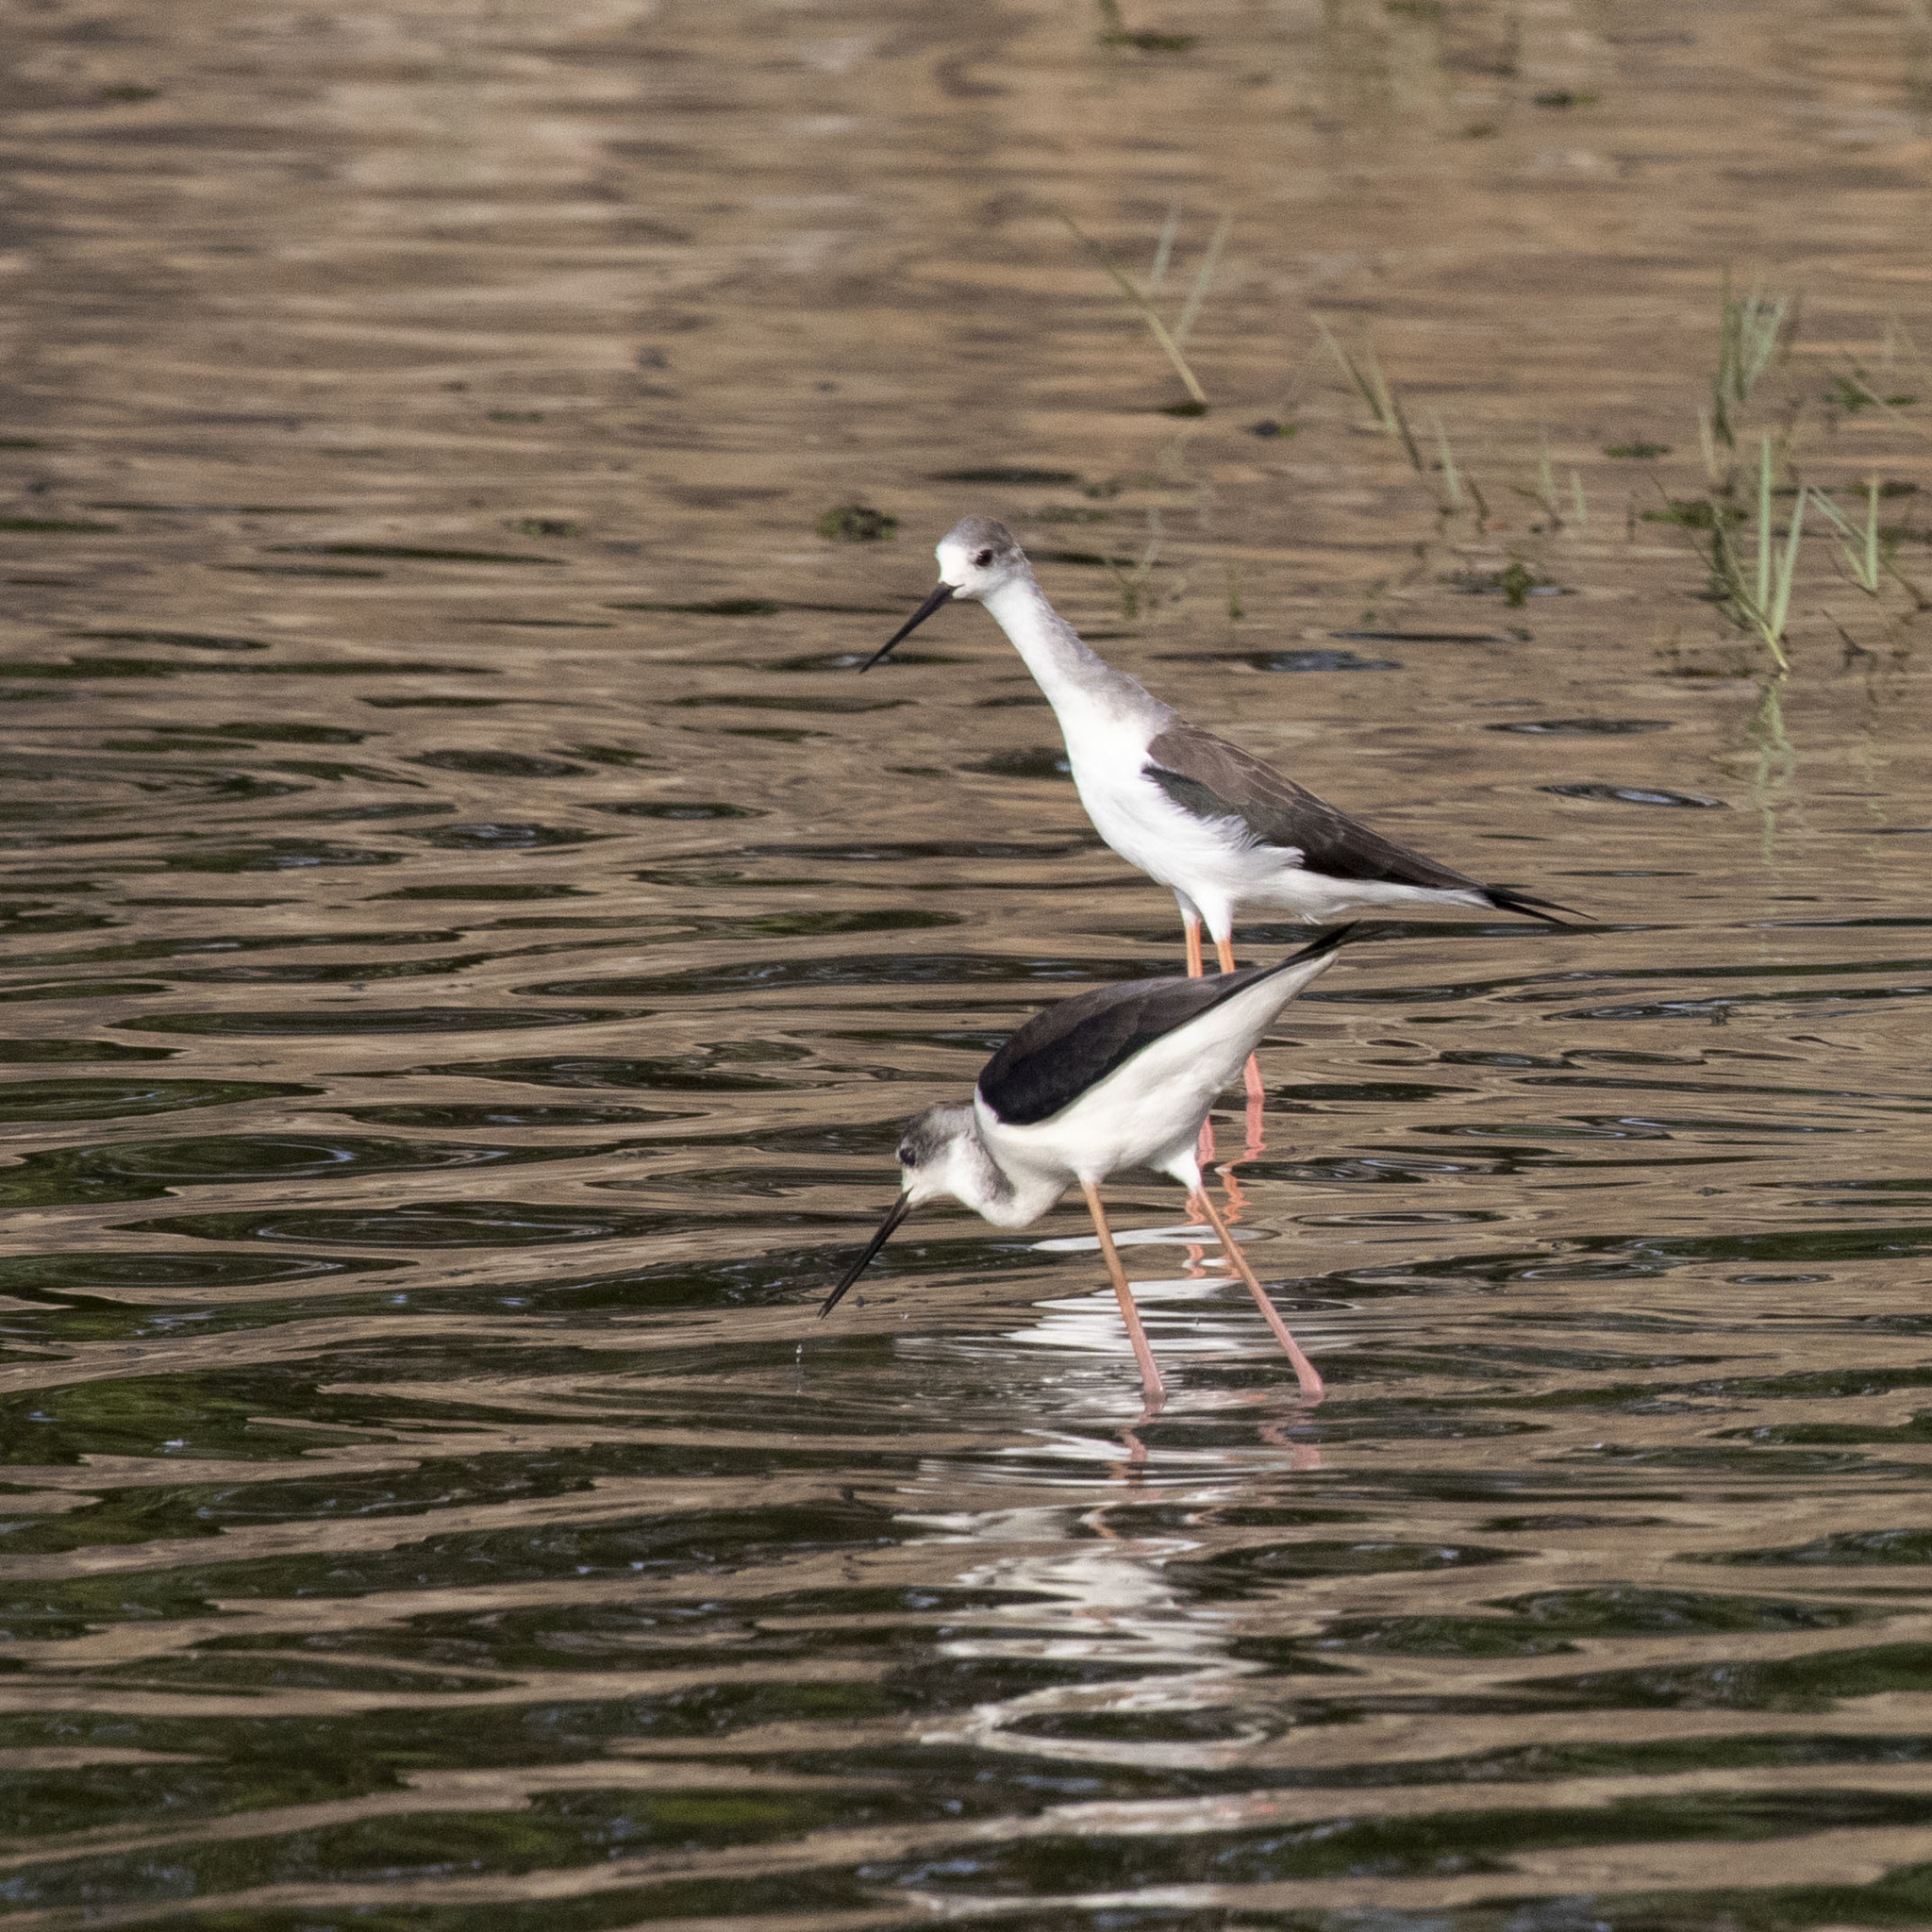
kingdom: Animalia
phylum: Chordata
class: Aves
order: Charadriiformes
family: Recurvirostridae
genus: Himantopus
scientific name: Himantopus himantopus
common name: Black-winged stilt
